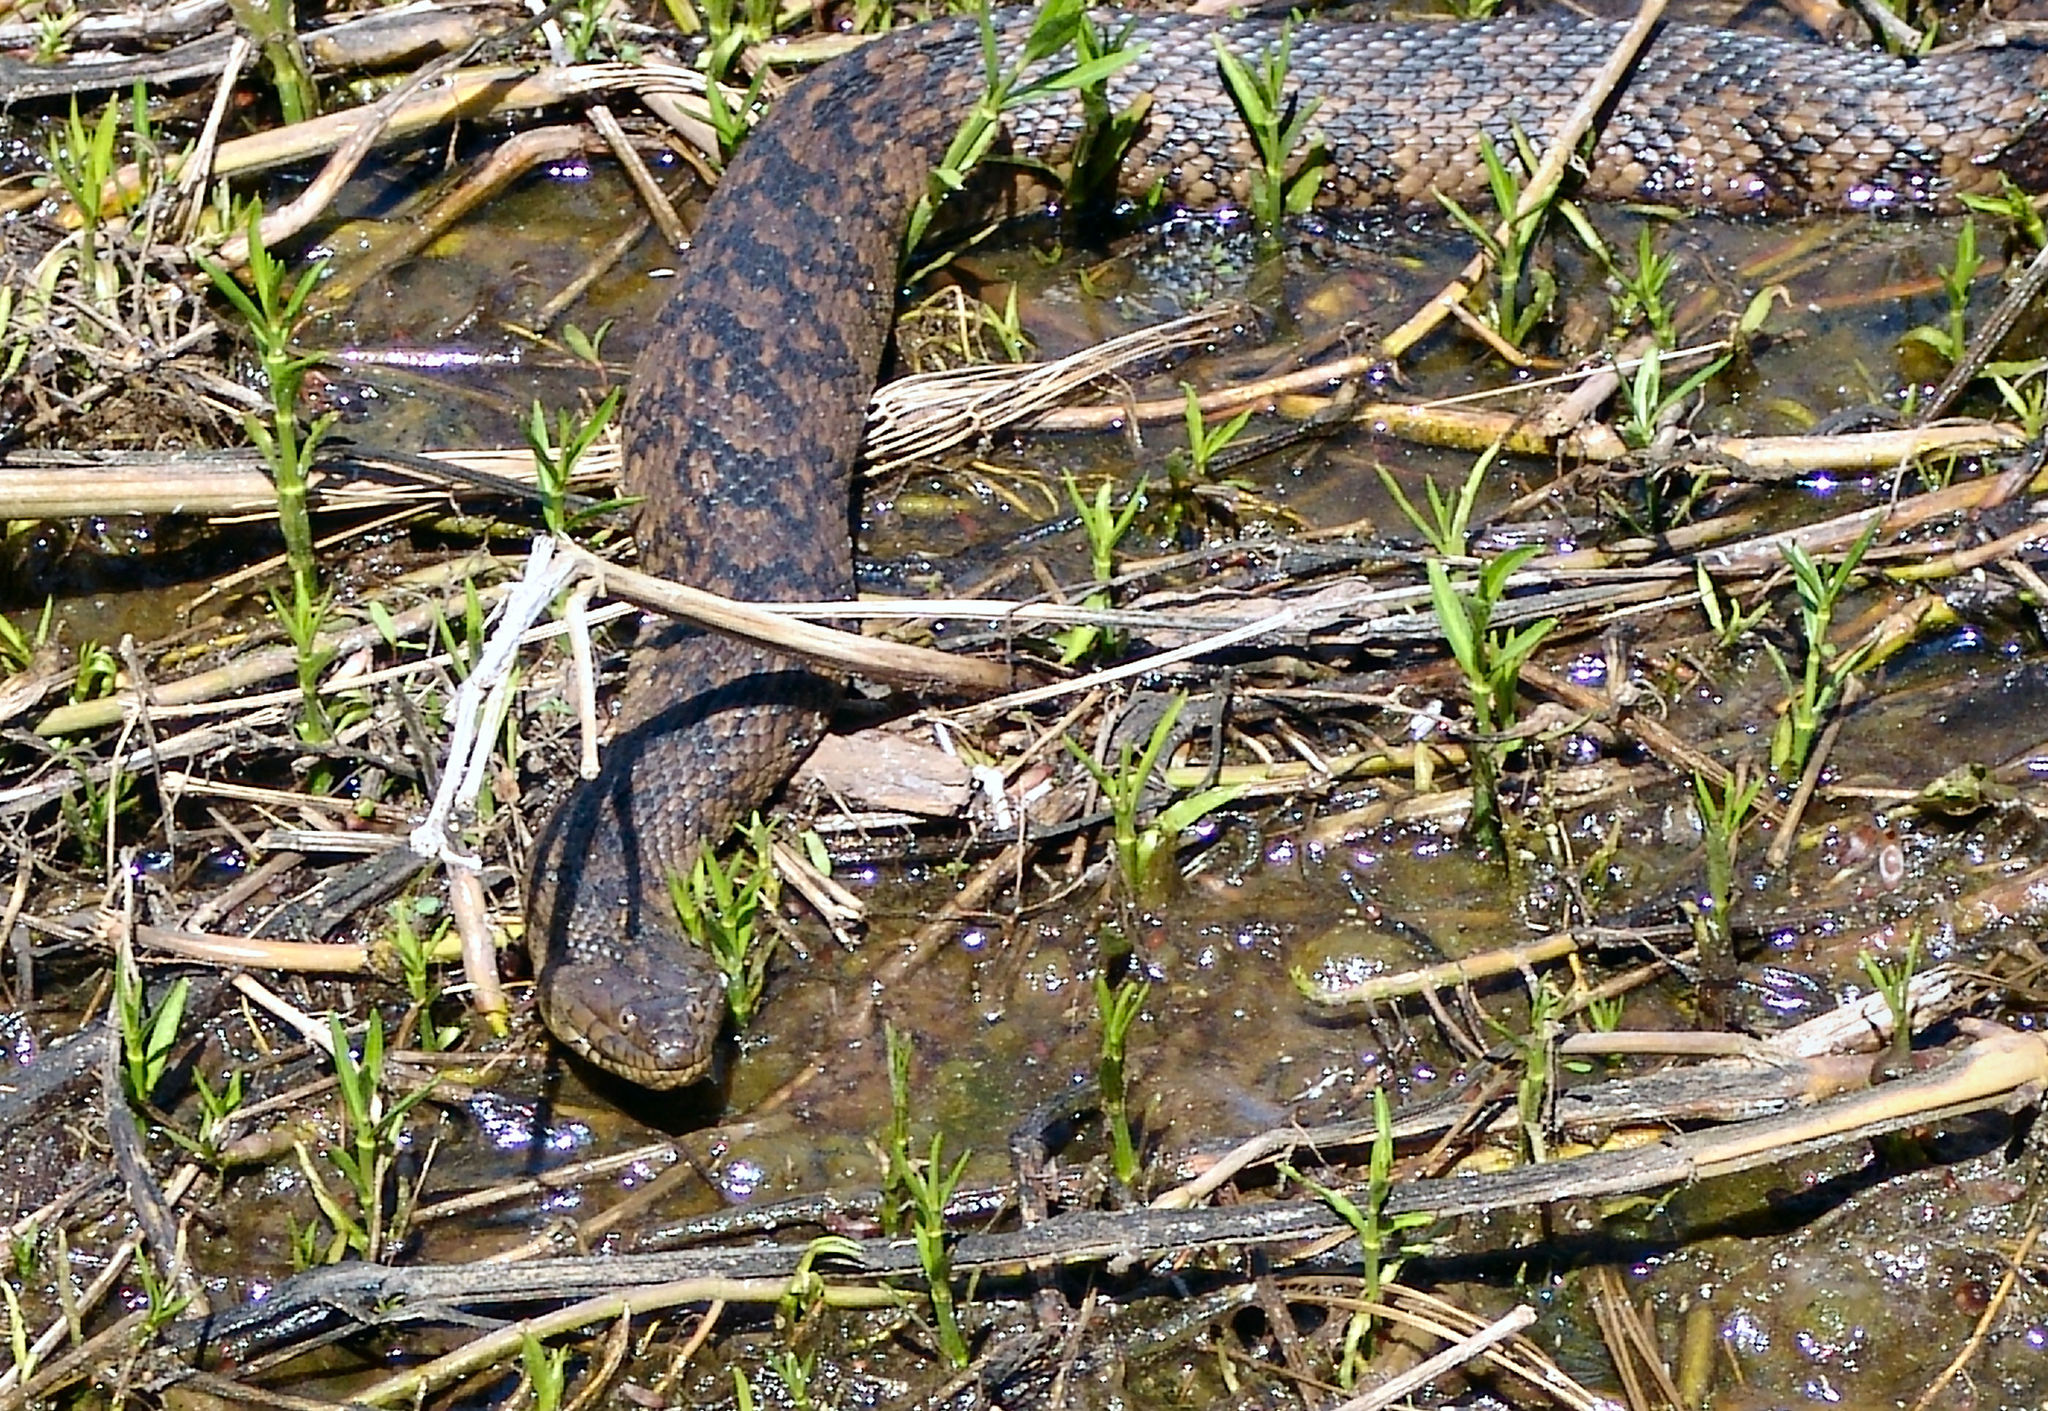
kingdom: Animalia
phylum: Chordata
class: Squamata
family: Colubridae
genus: Nerodia
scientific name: Nerodia rhombifer
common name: Diamondback water snake
